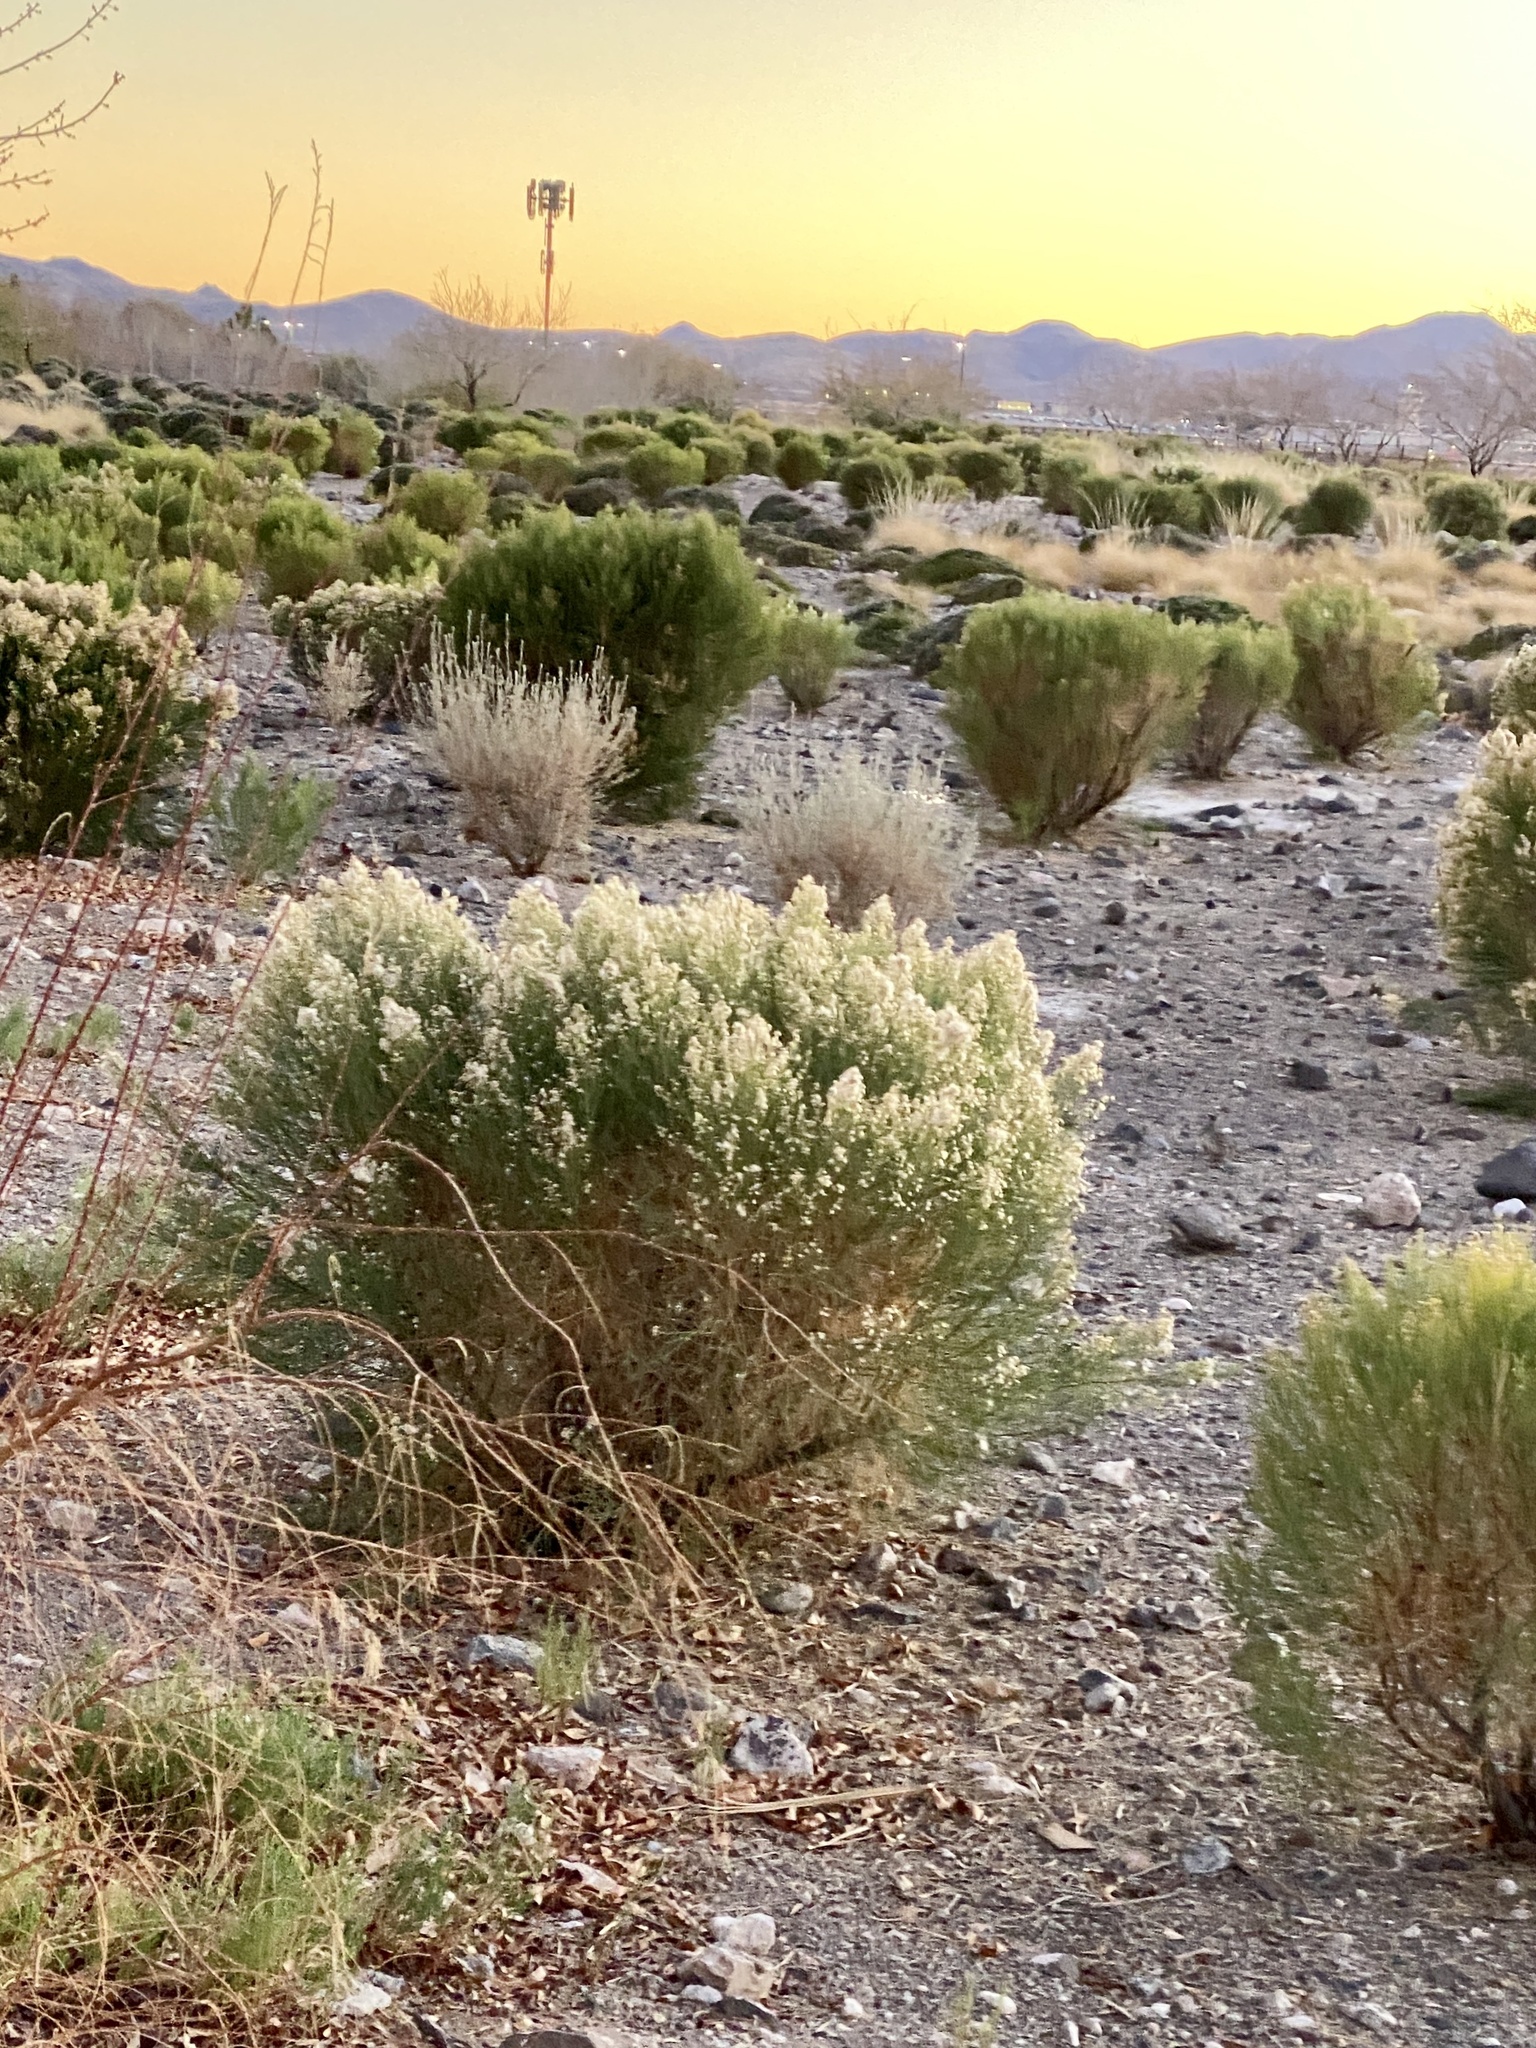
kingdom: Plantae
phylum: Tracheophyta
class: Magnoliopsida
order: Asterales
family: Asteraceae
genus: Baccharis
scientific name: Baccharis sarothroides
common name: Desert-broom
